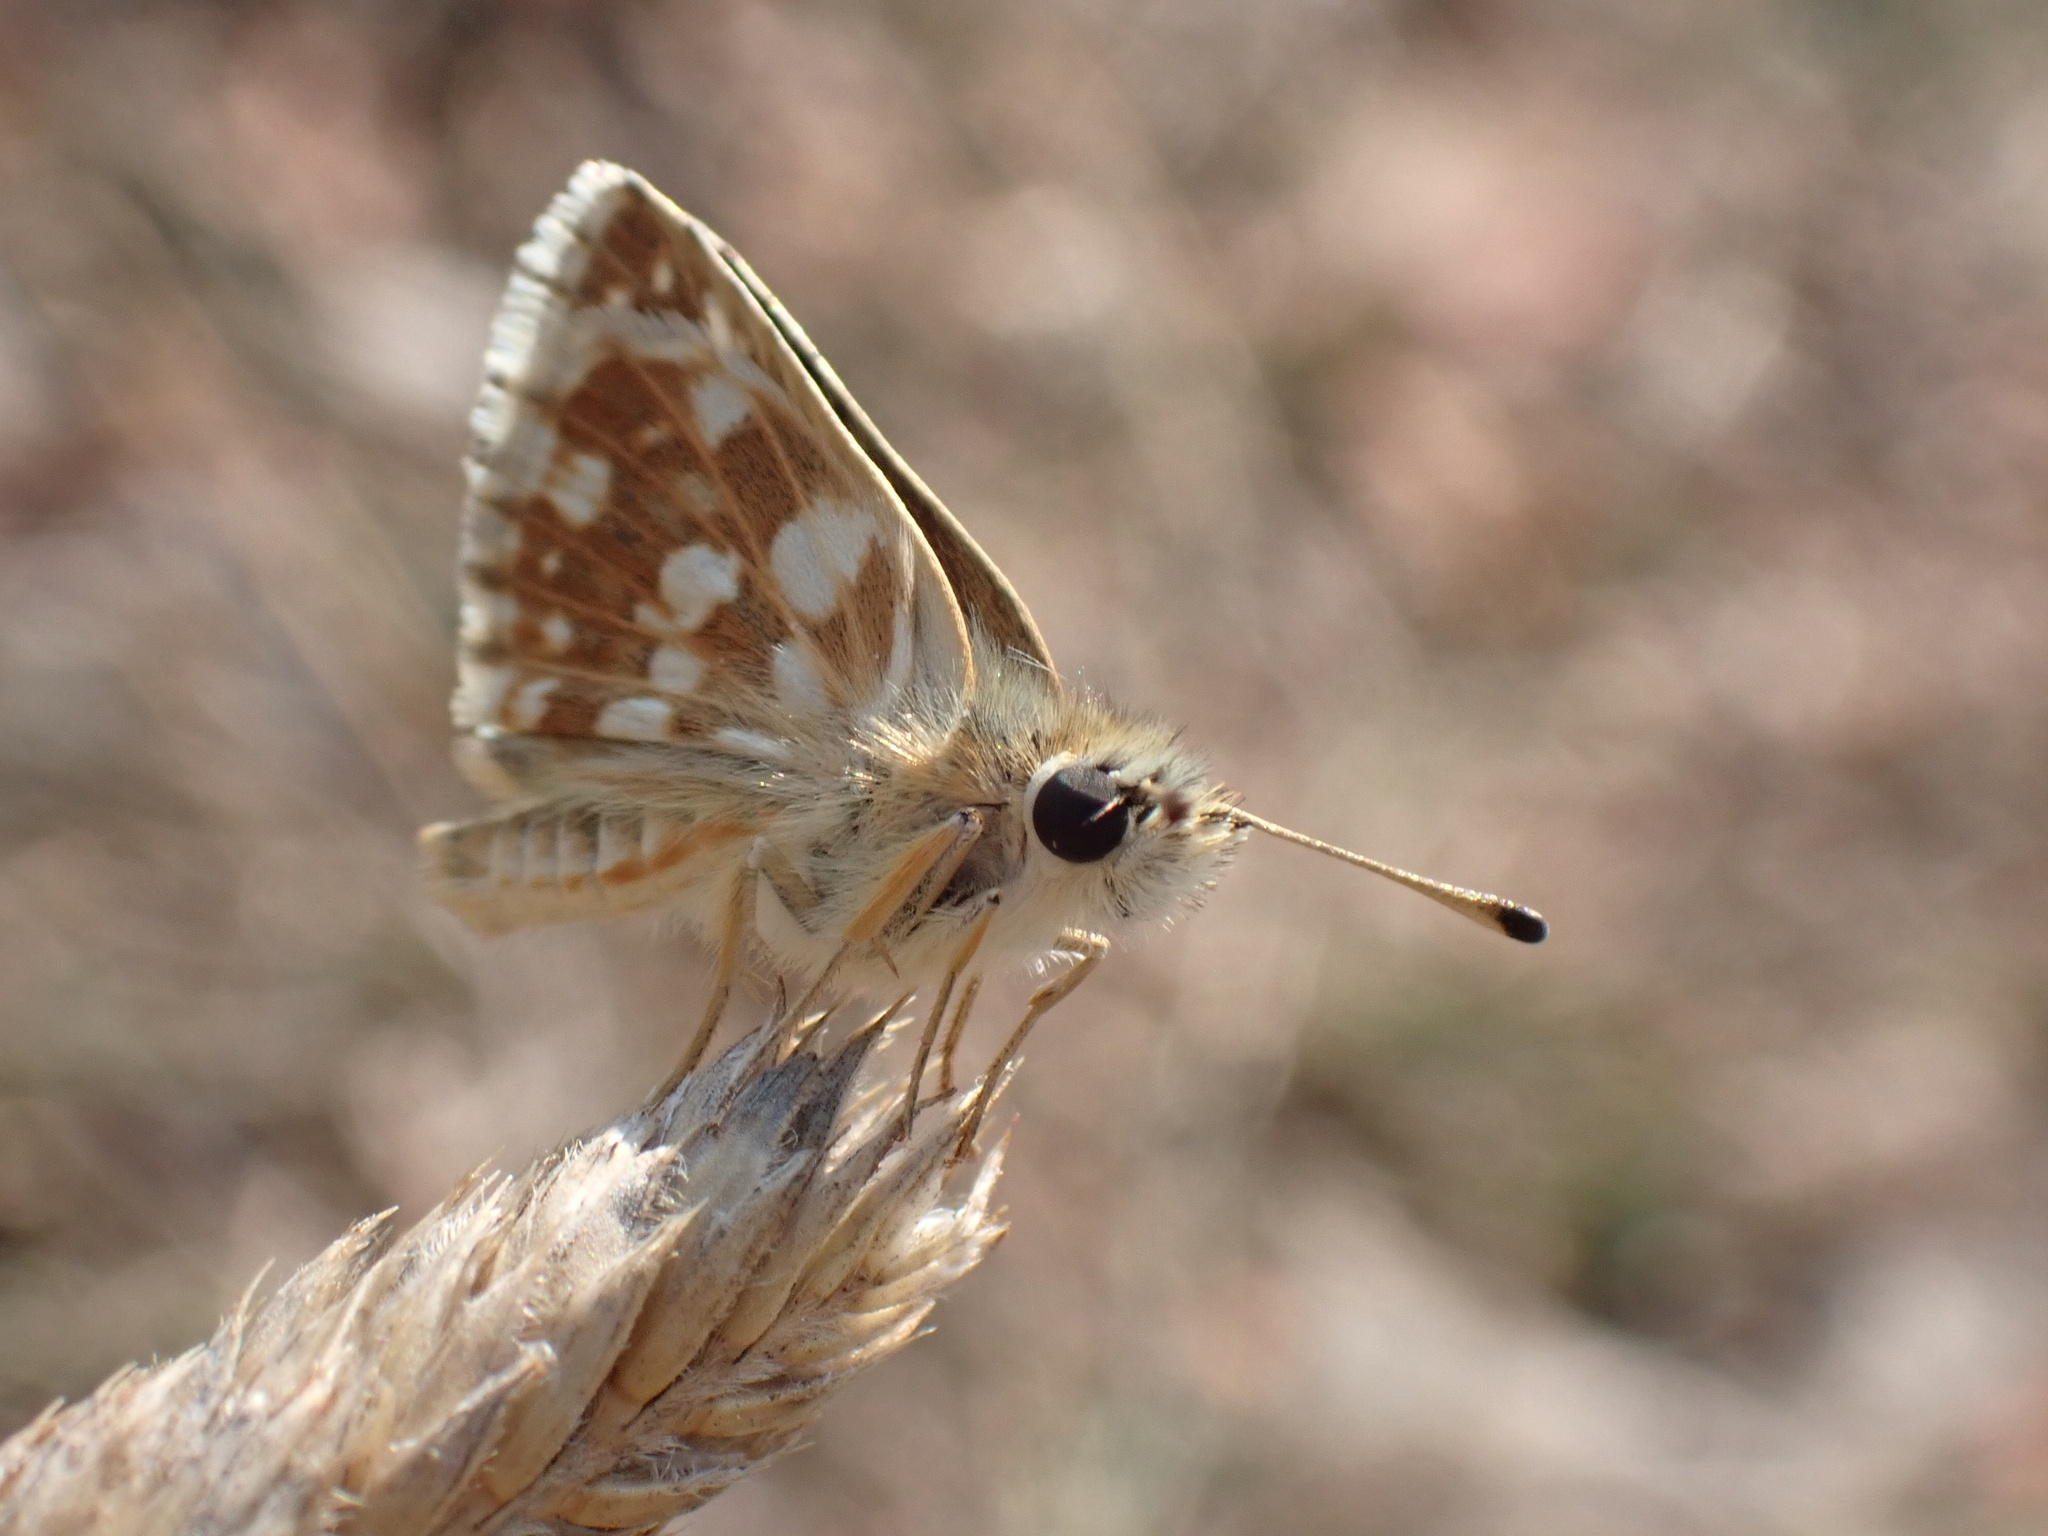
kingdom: Animalia
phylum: Arthropoda
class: Insecta
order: Lepidoptera
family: Hesperiidae
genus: Spialia
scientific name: Spialia sertorius
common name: Red underwing skipper
